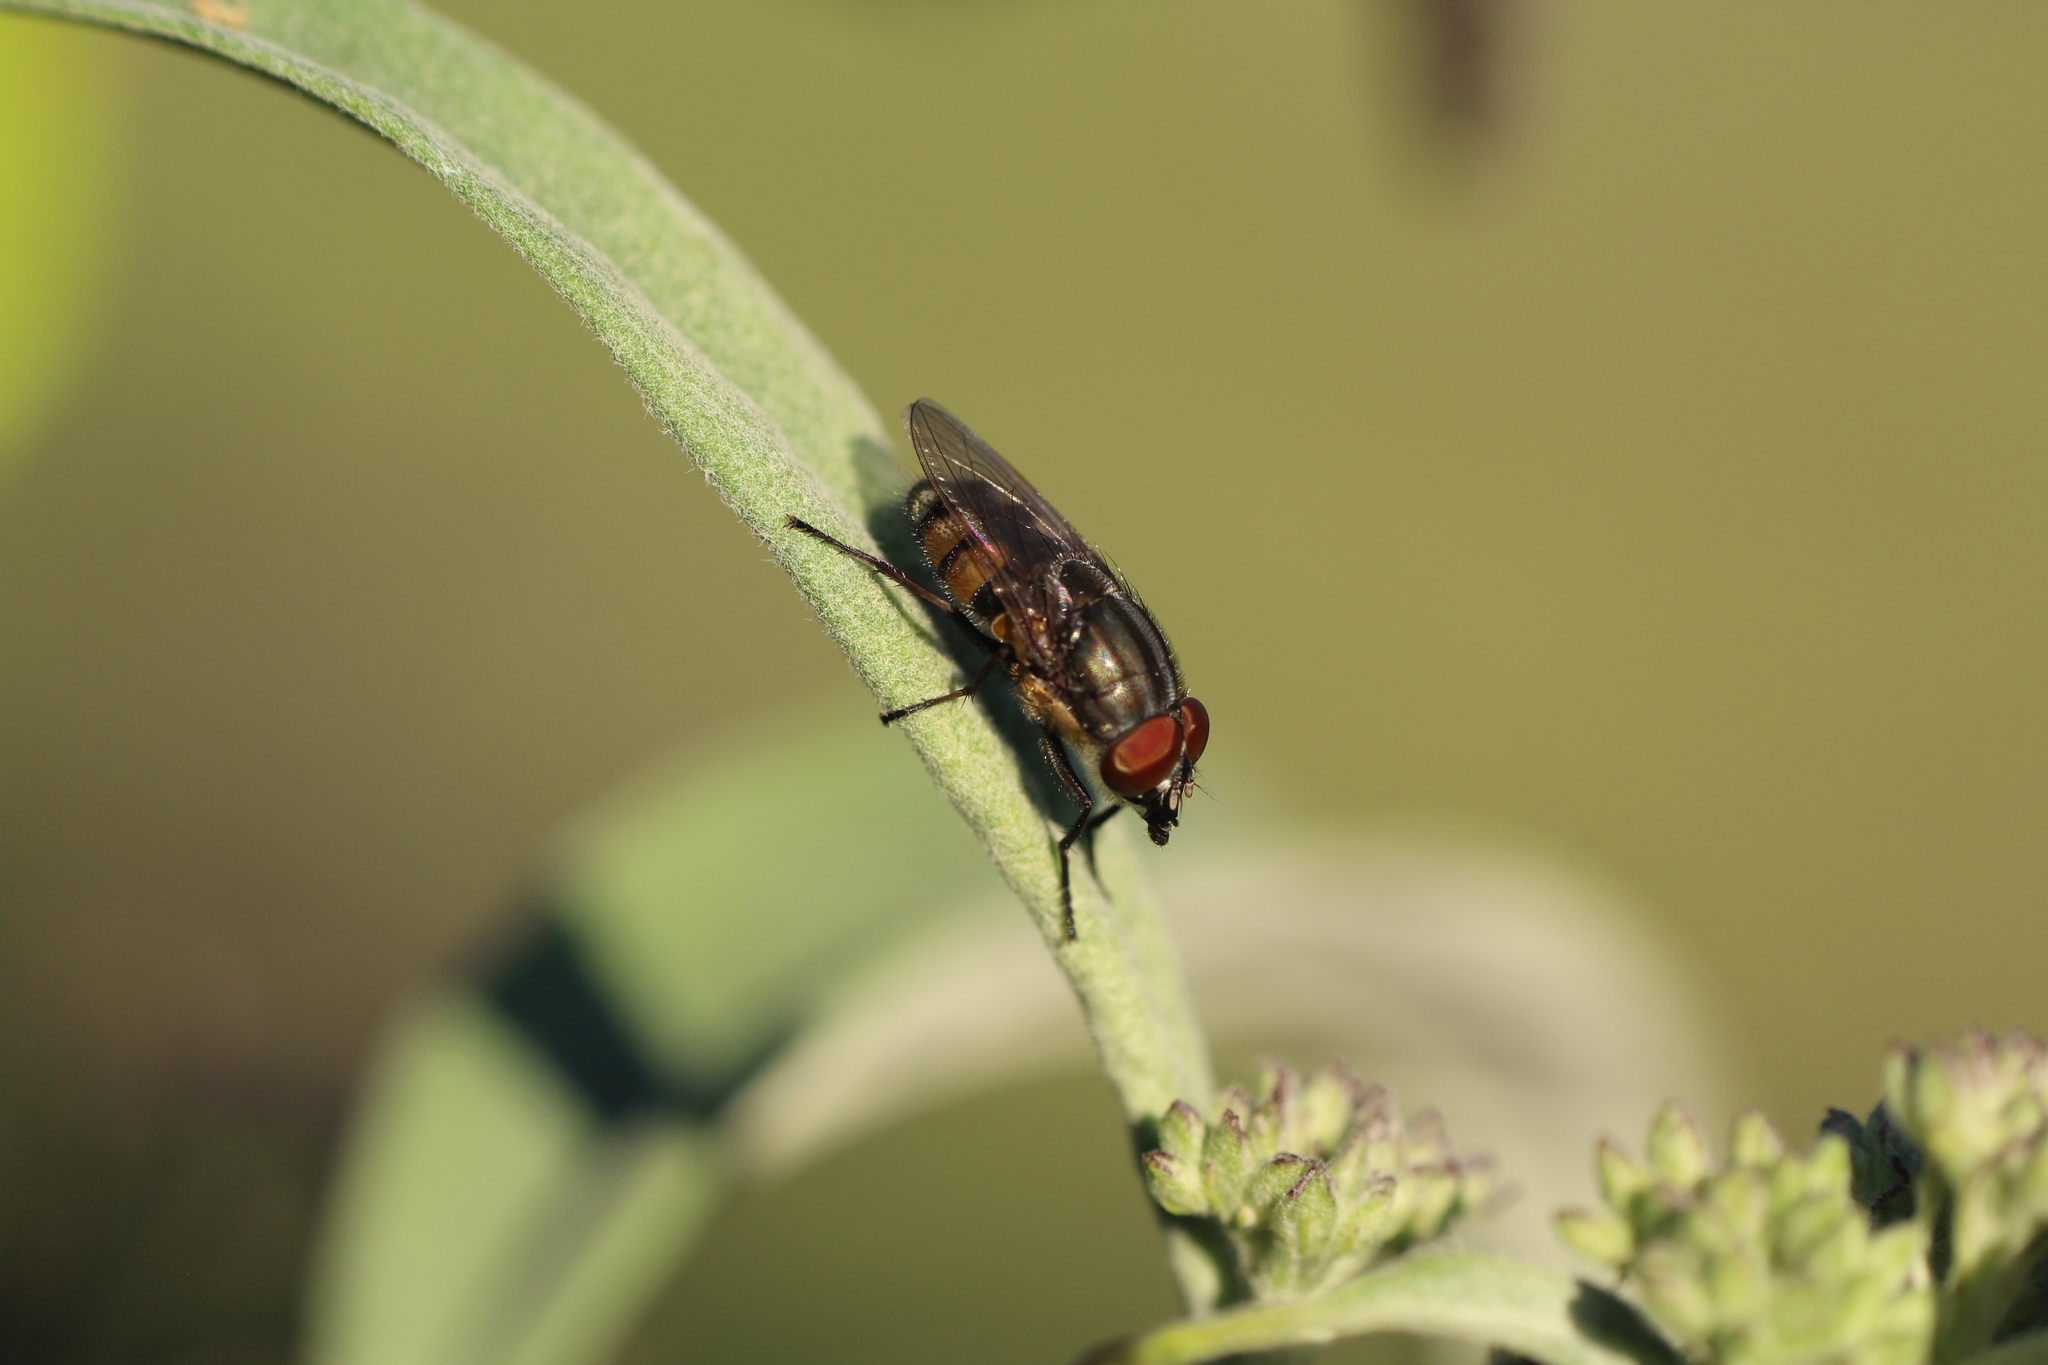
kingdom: Animalia
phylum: Arthropoda
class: Insecta
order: Diptera
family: Calliphoridae
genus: Stomorhina
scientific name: Stomorhina lunata
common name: Locust blowfly
